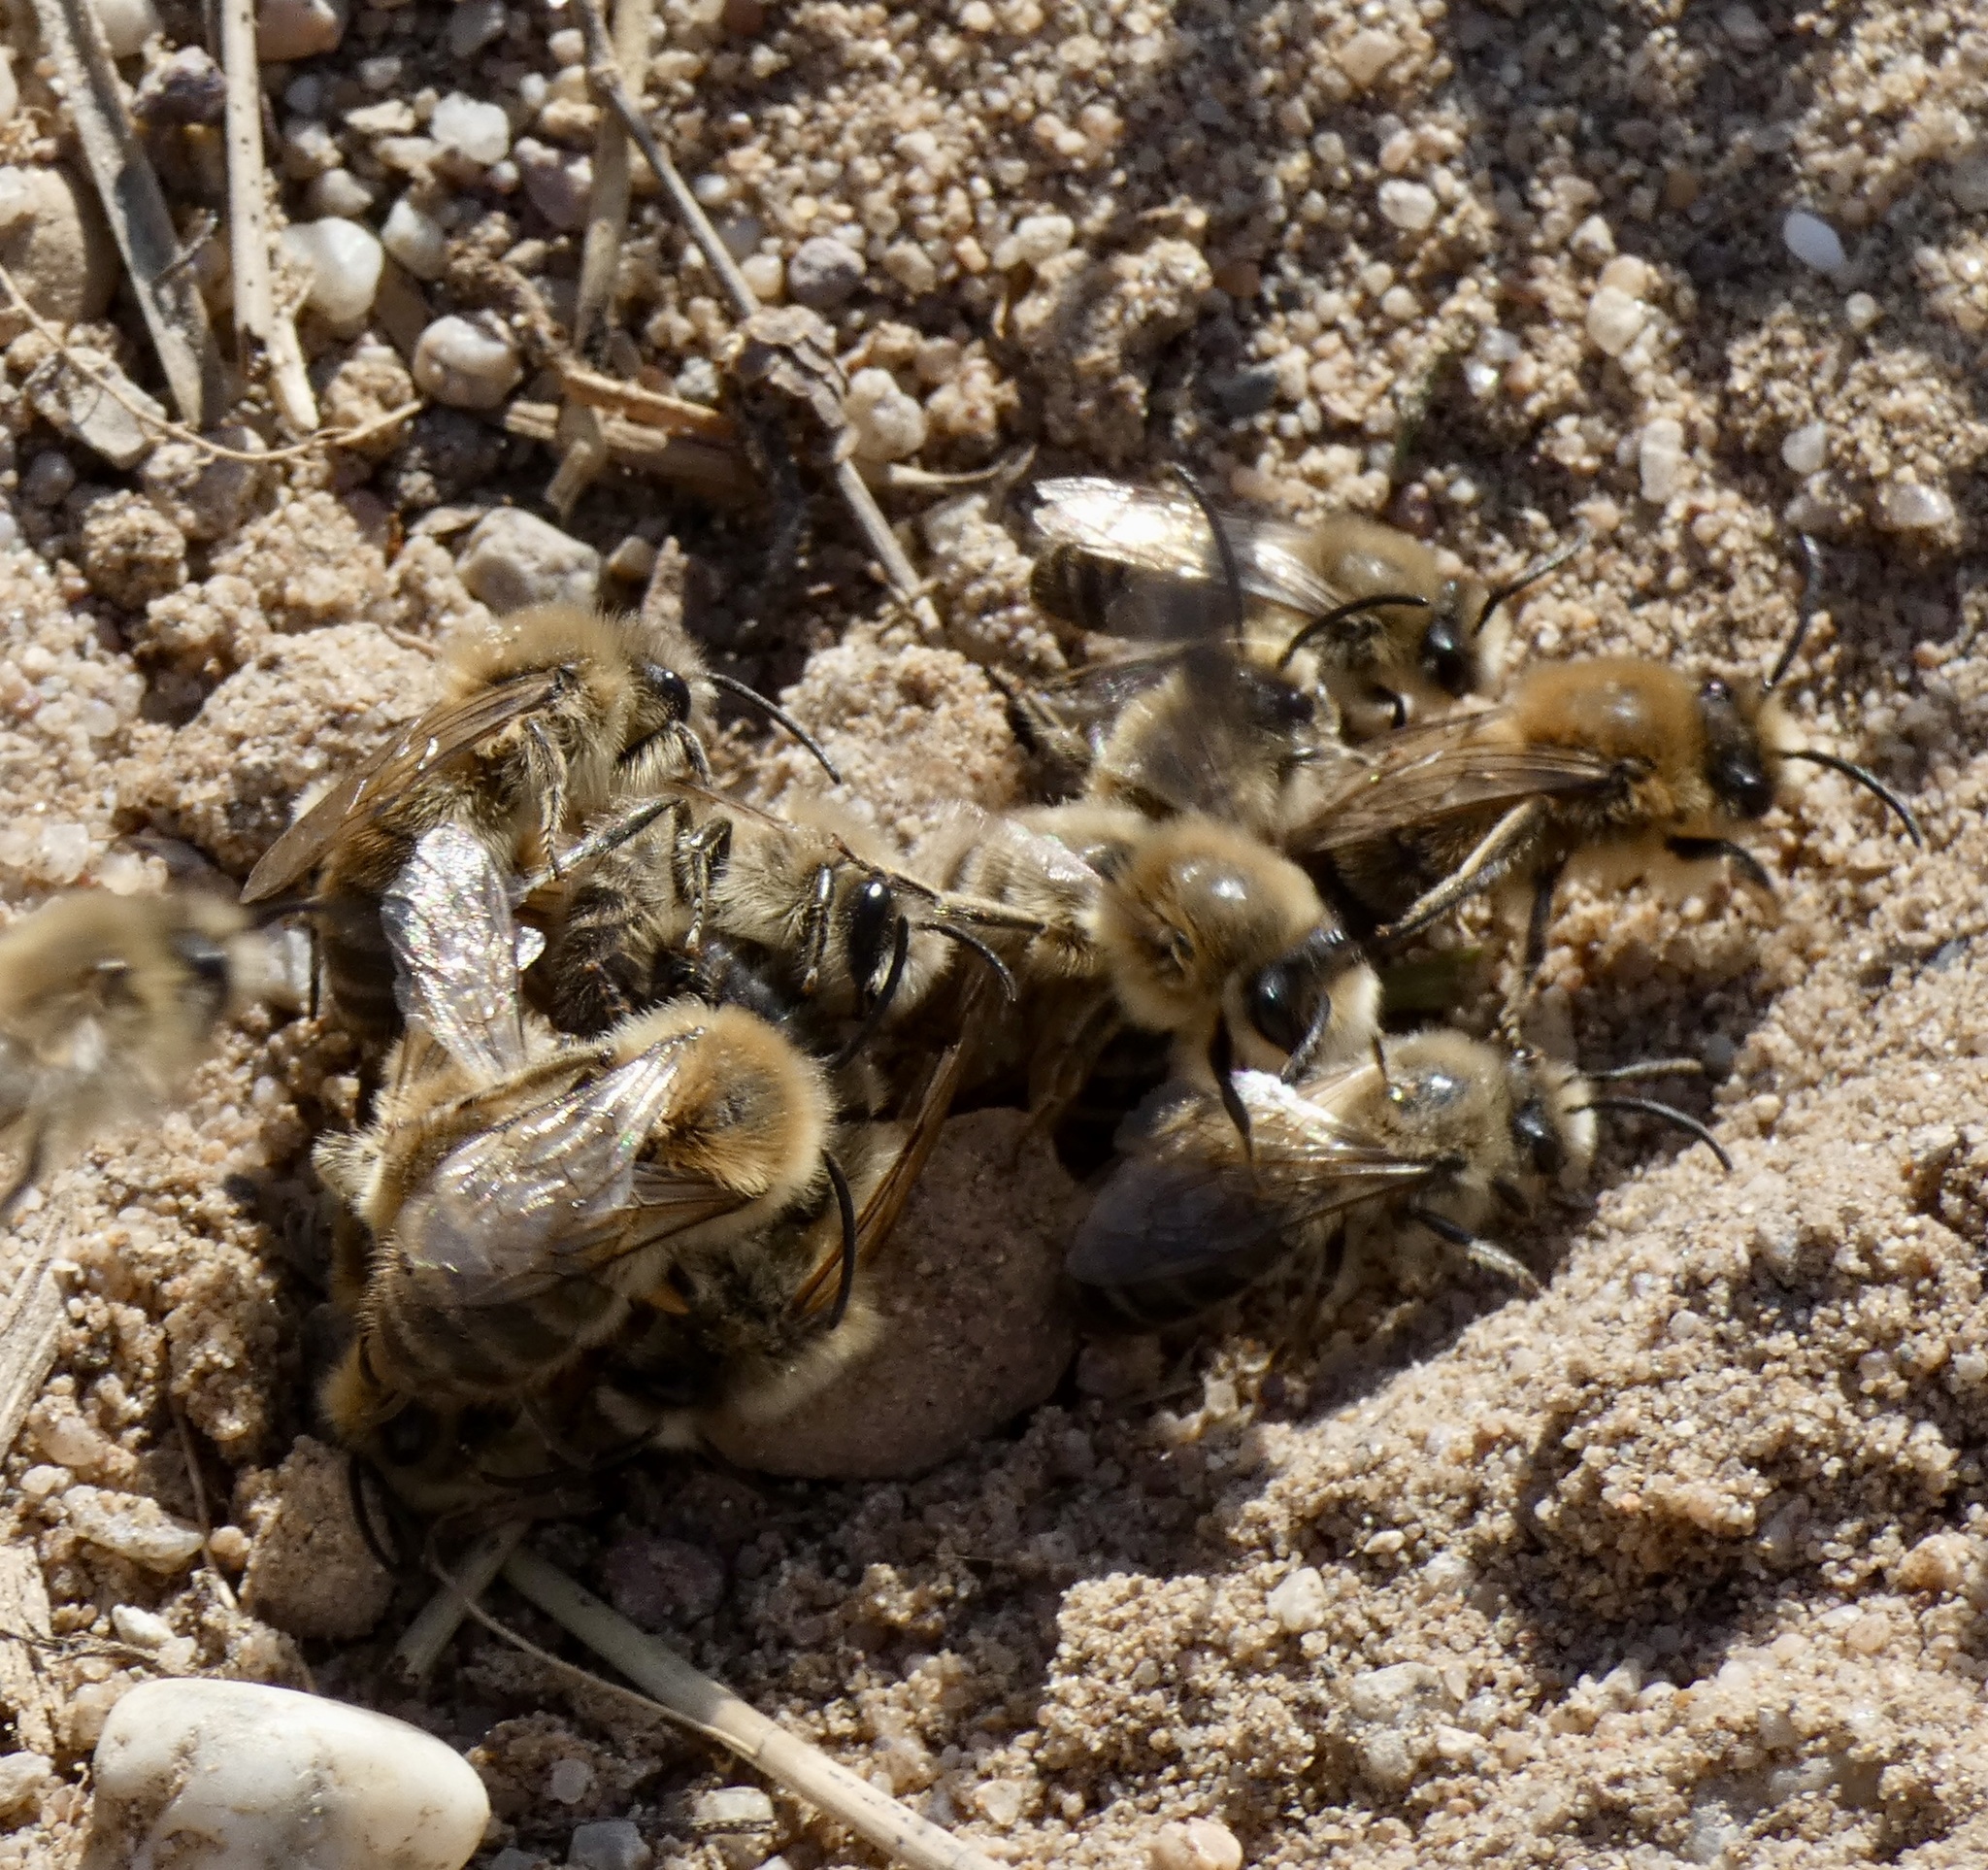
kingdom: Animalia
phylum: Arthropoda
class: Insecta
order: Hymenoptera
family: Colletidae
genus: Colletes
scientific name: Colletes cunicularius
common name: Early colletes
